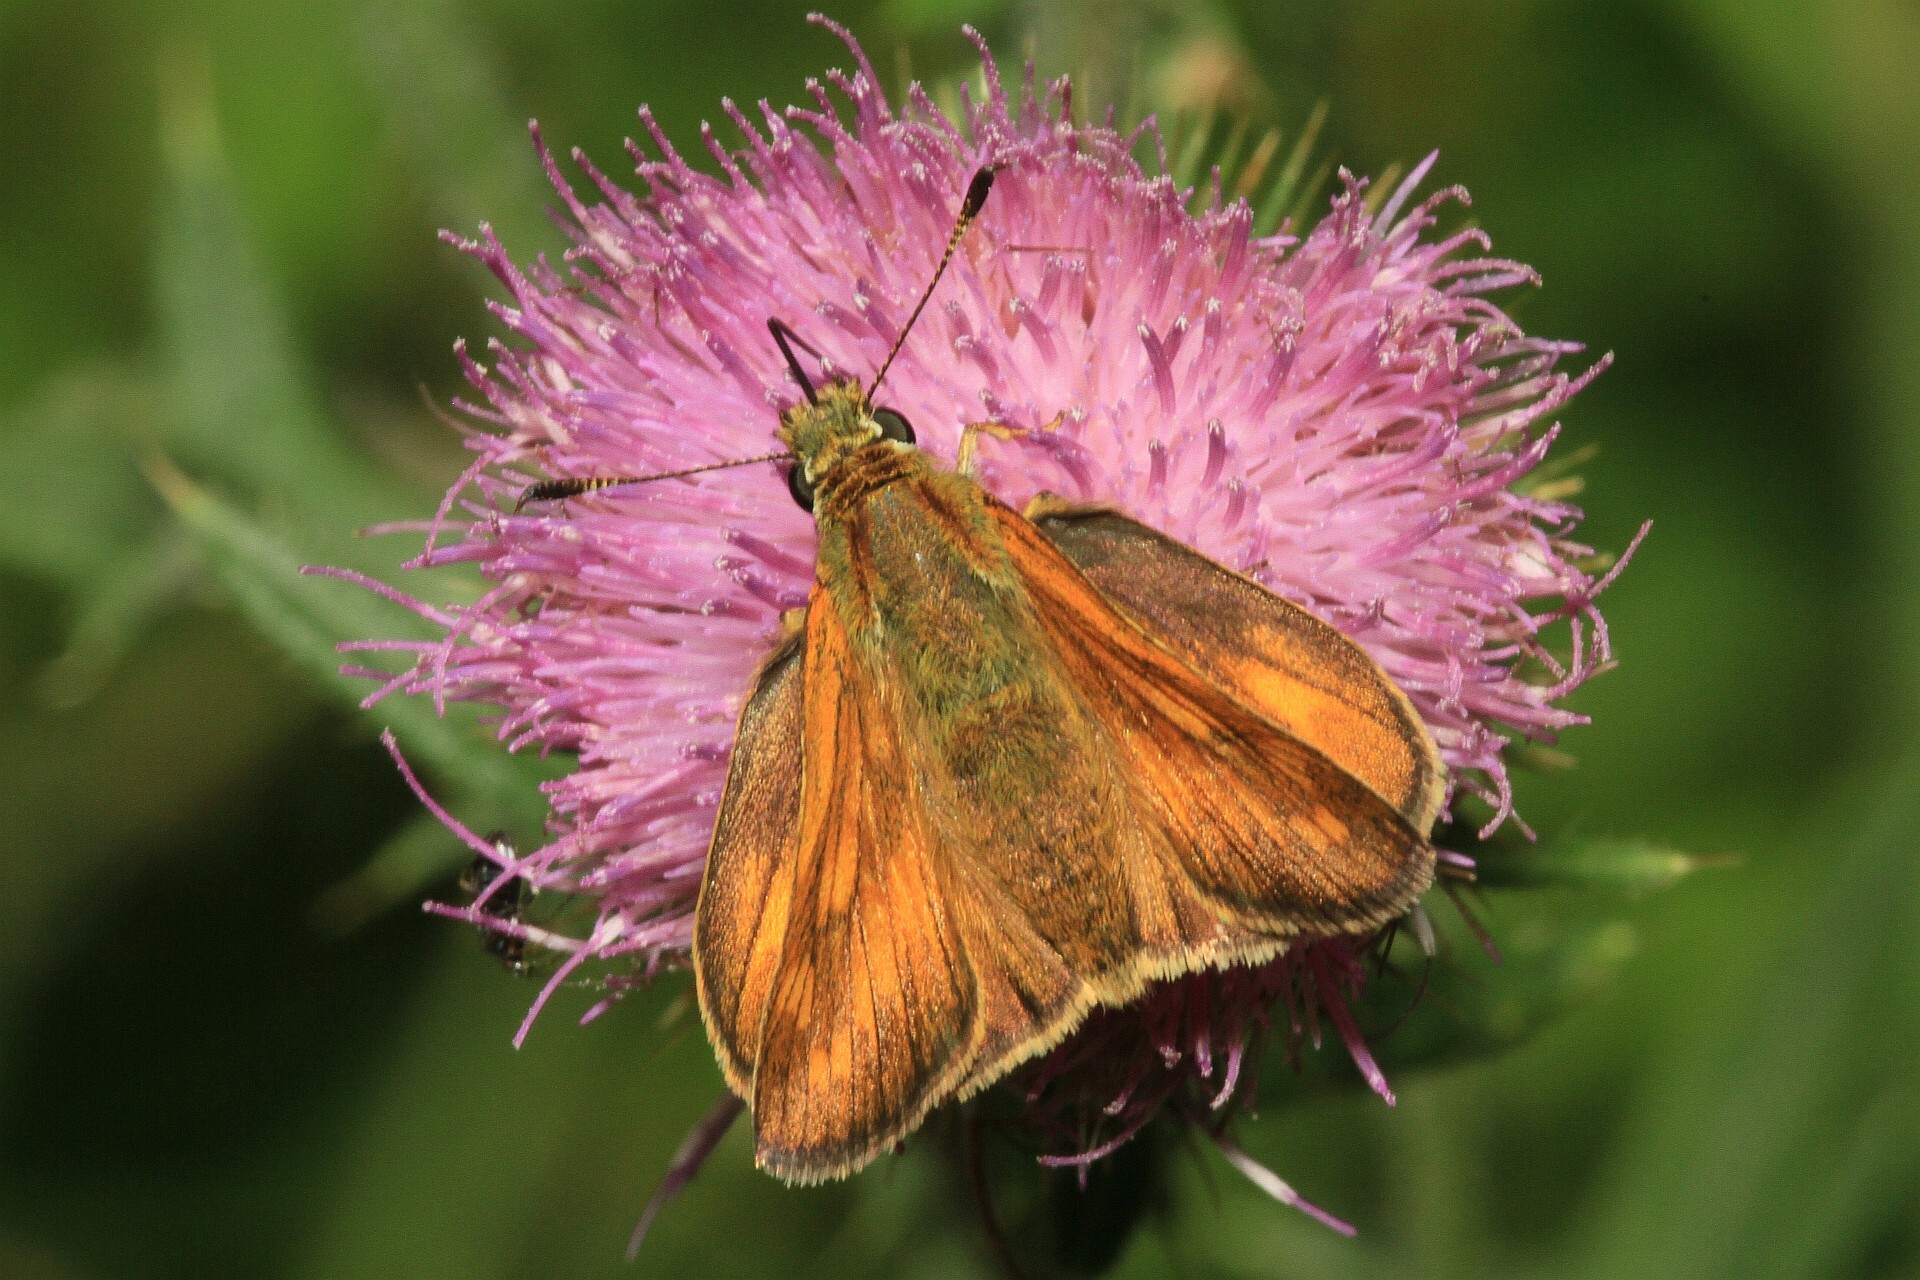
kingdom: Animalia
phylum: Arthropoda
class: Insecta
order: Lepidoptera
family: Hesperiidae
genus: Ochlodes
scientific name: Ochlodes venata
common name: Large skipper
